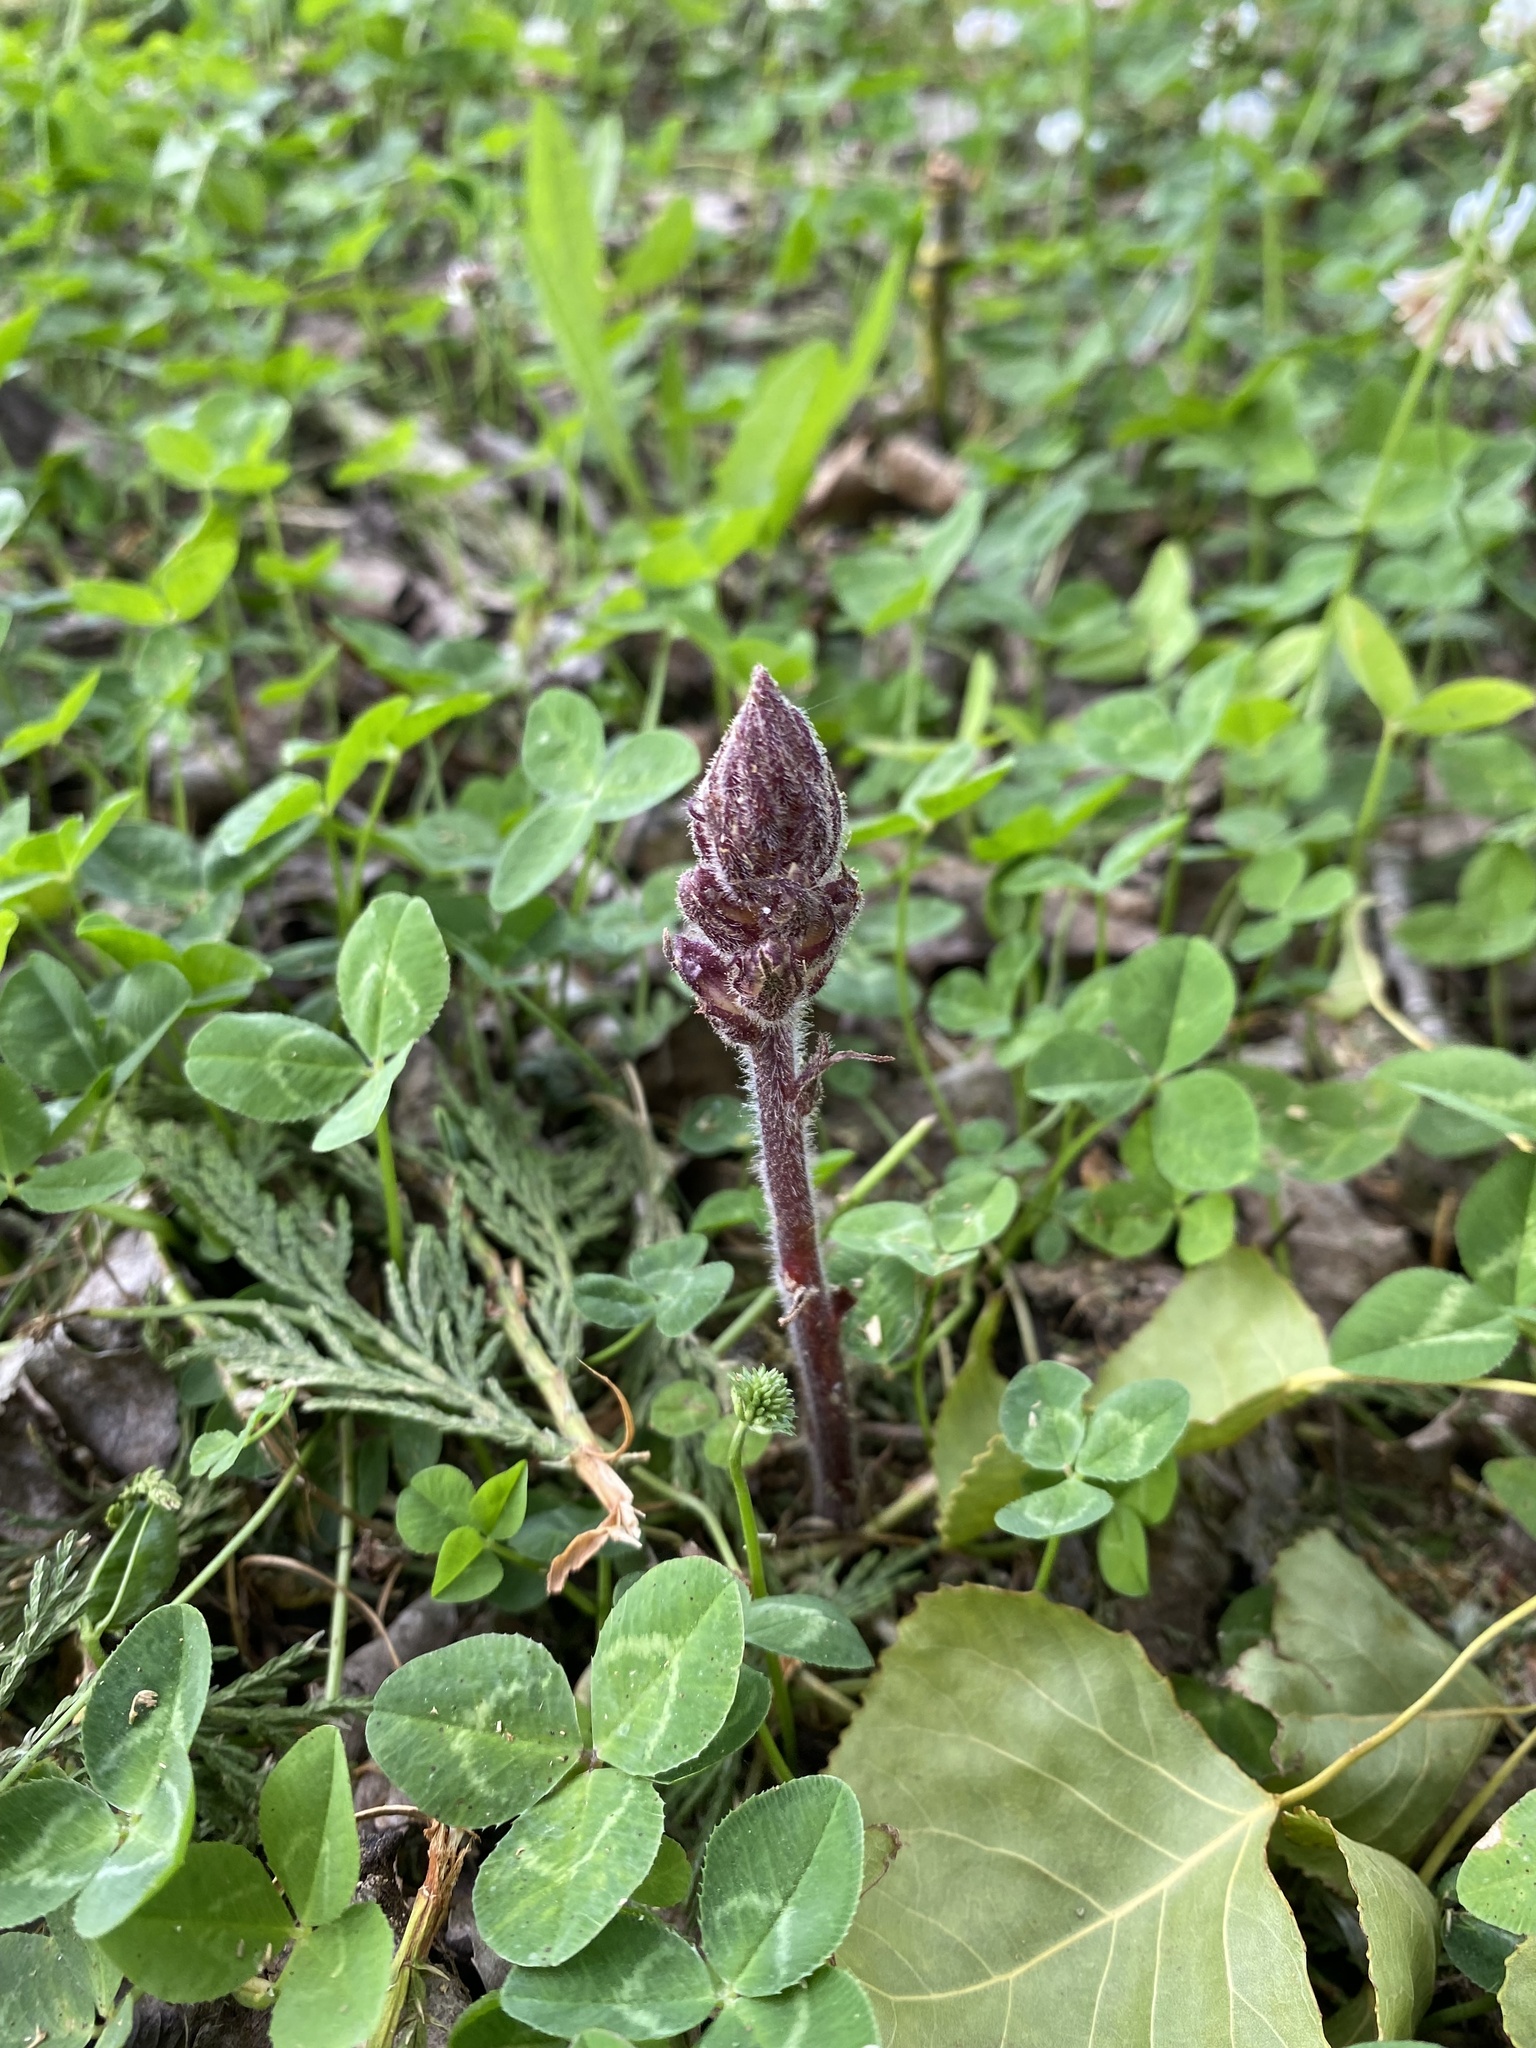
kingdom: Plantae
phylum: Tracheophyta
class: Magnoliopsida
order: Lamiales
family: Orobanchaceae
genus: Orobanche
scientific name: Orobanche minor
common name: Common broomrape
